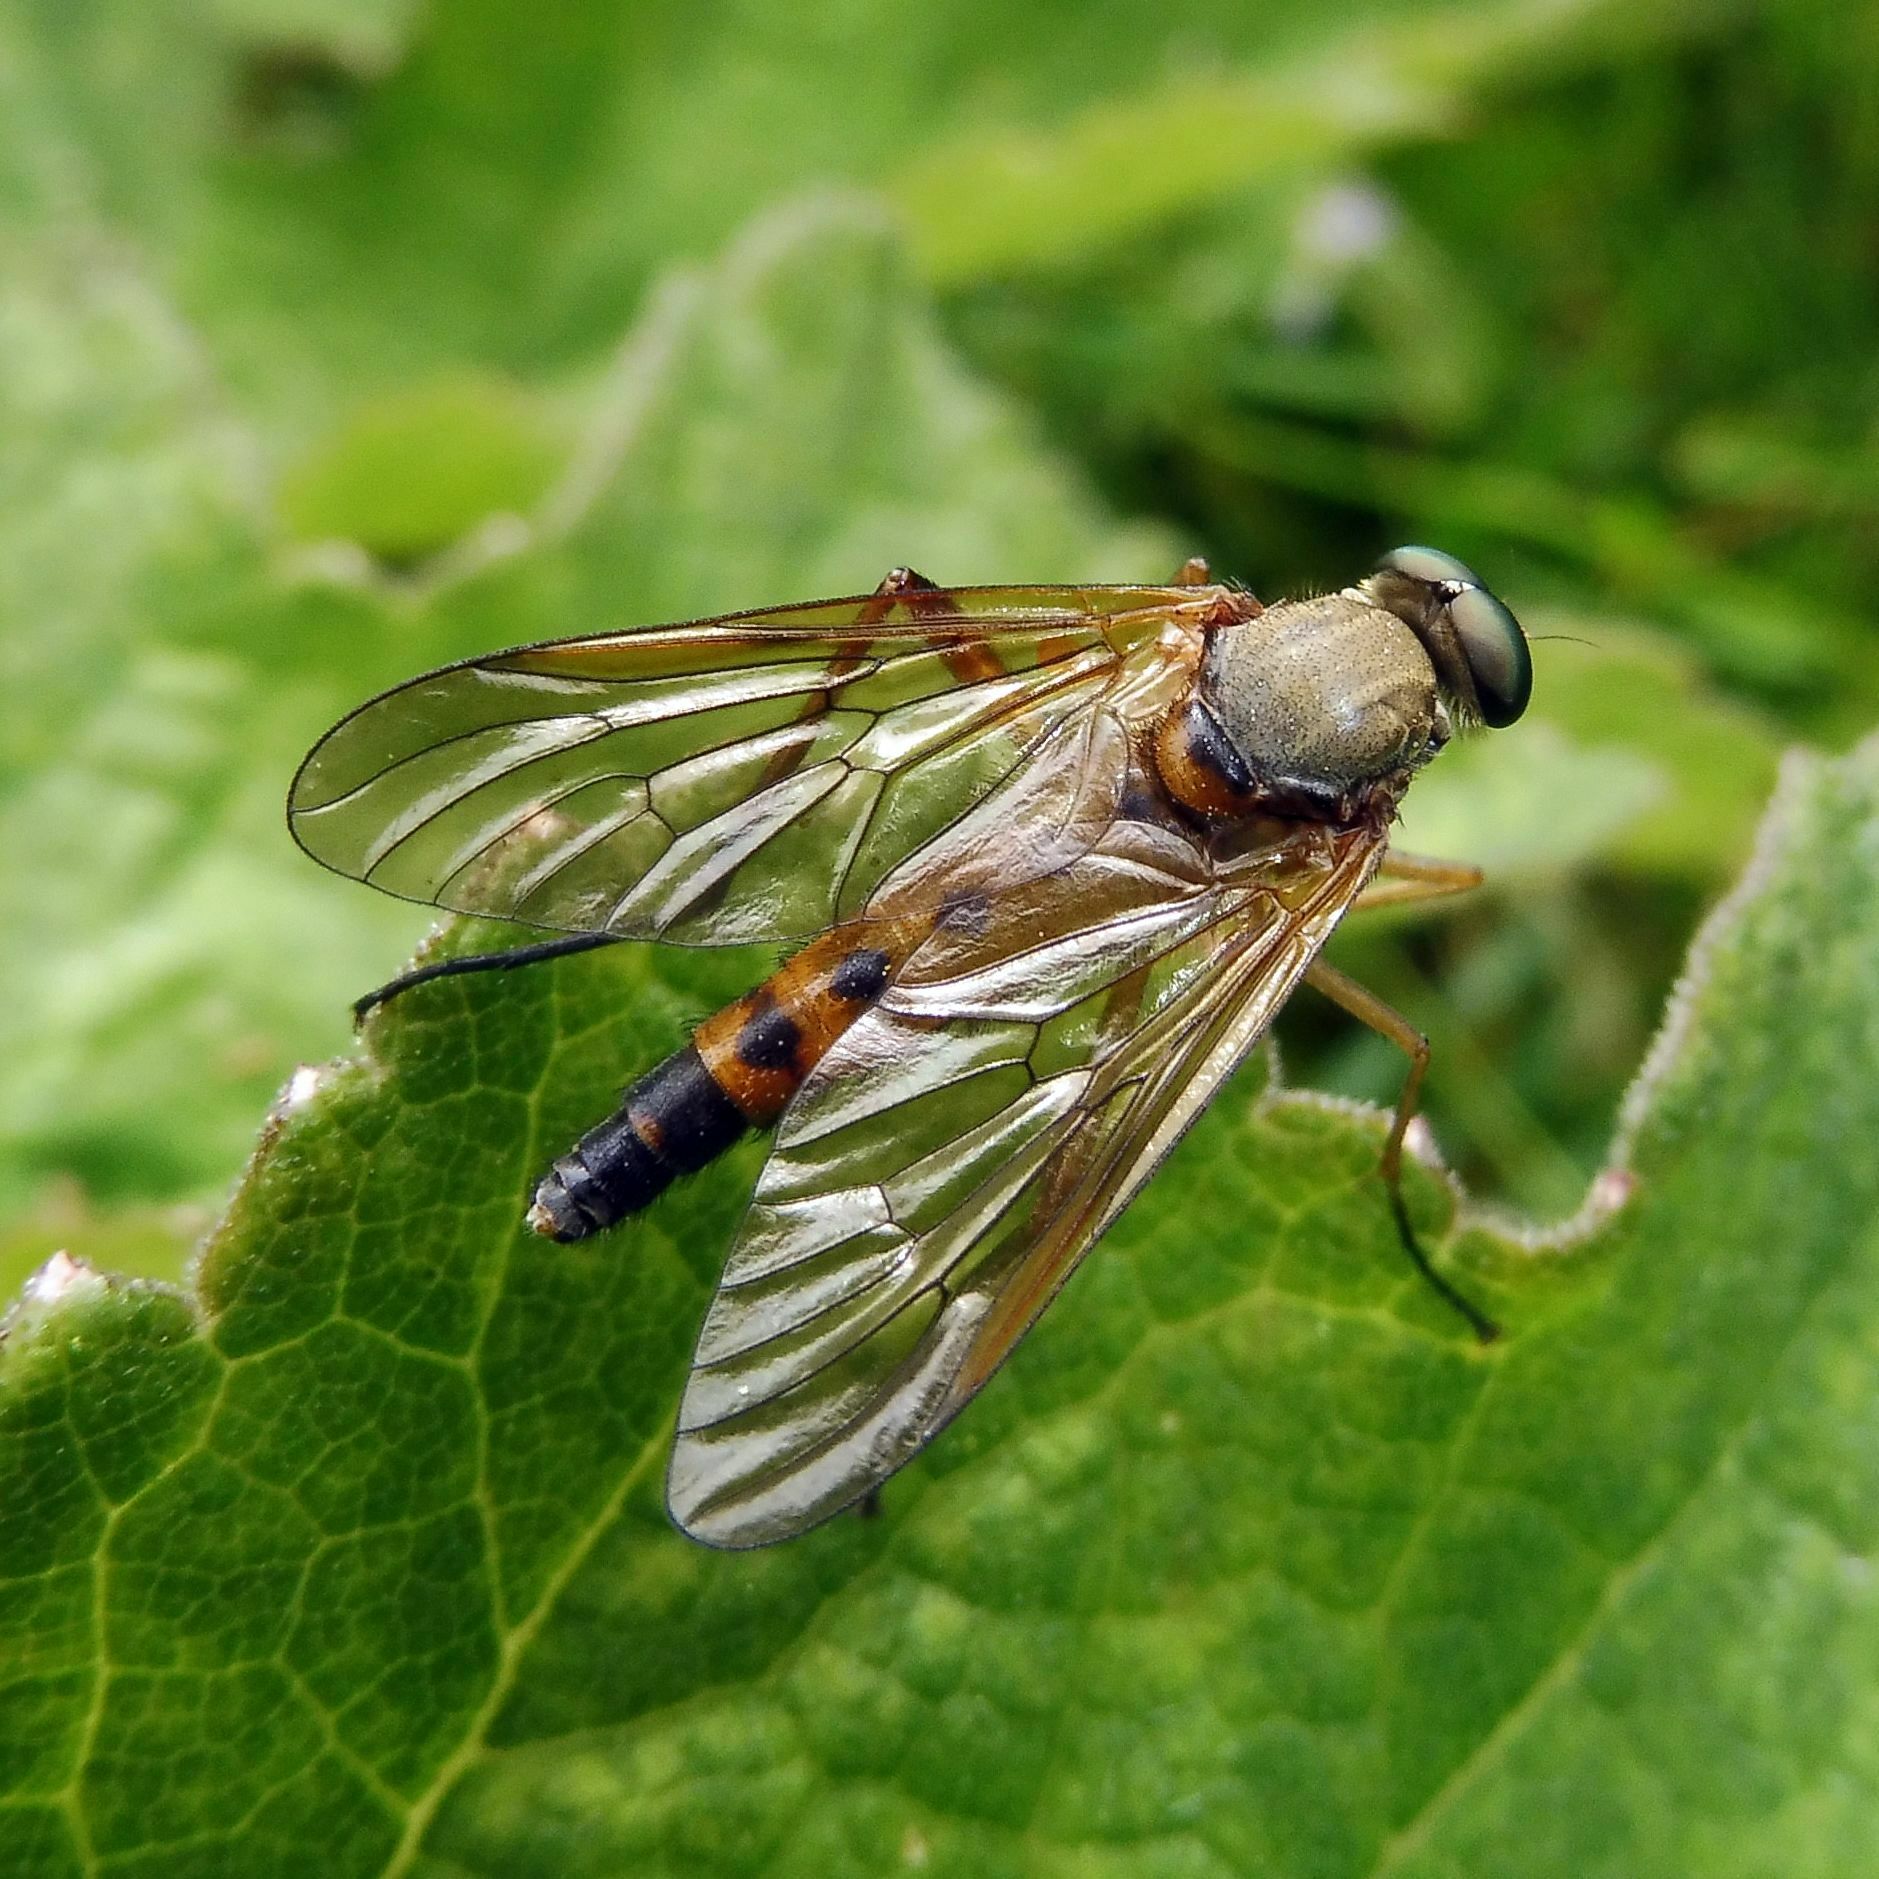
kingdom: Animalia
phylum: Arthropoda
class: Insecta
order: Diptera
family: Rhagionidae
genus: Rhagio
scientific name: Rhagio tringaria
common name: Marsh snipefly
